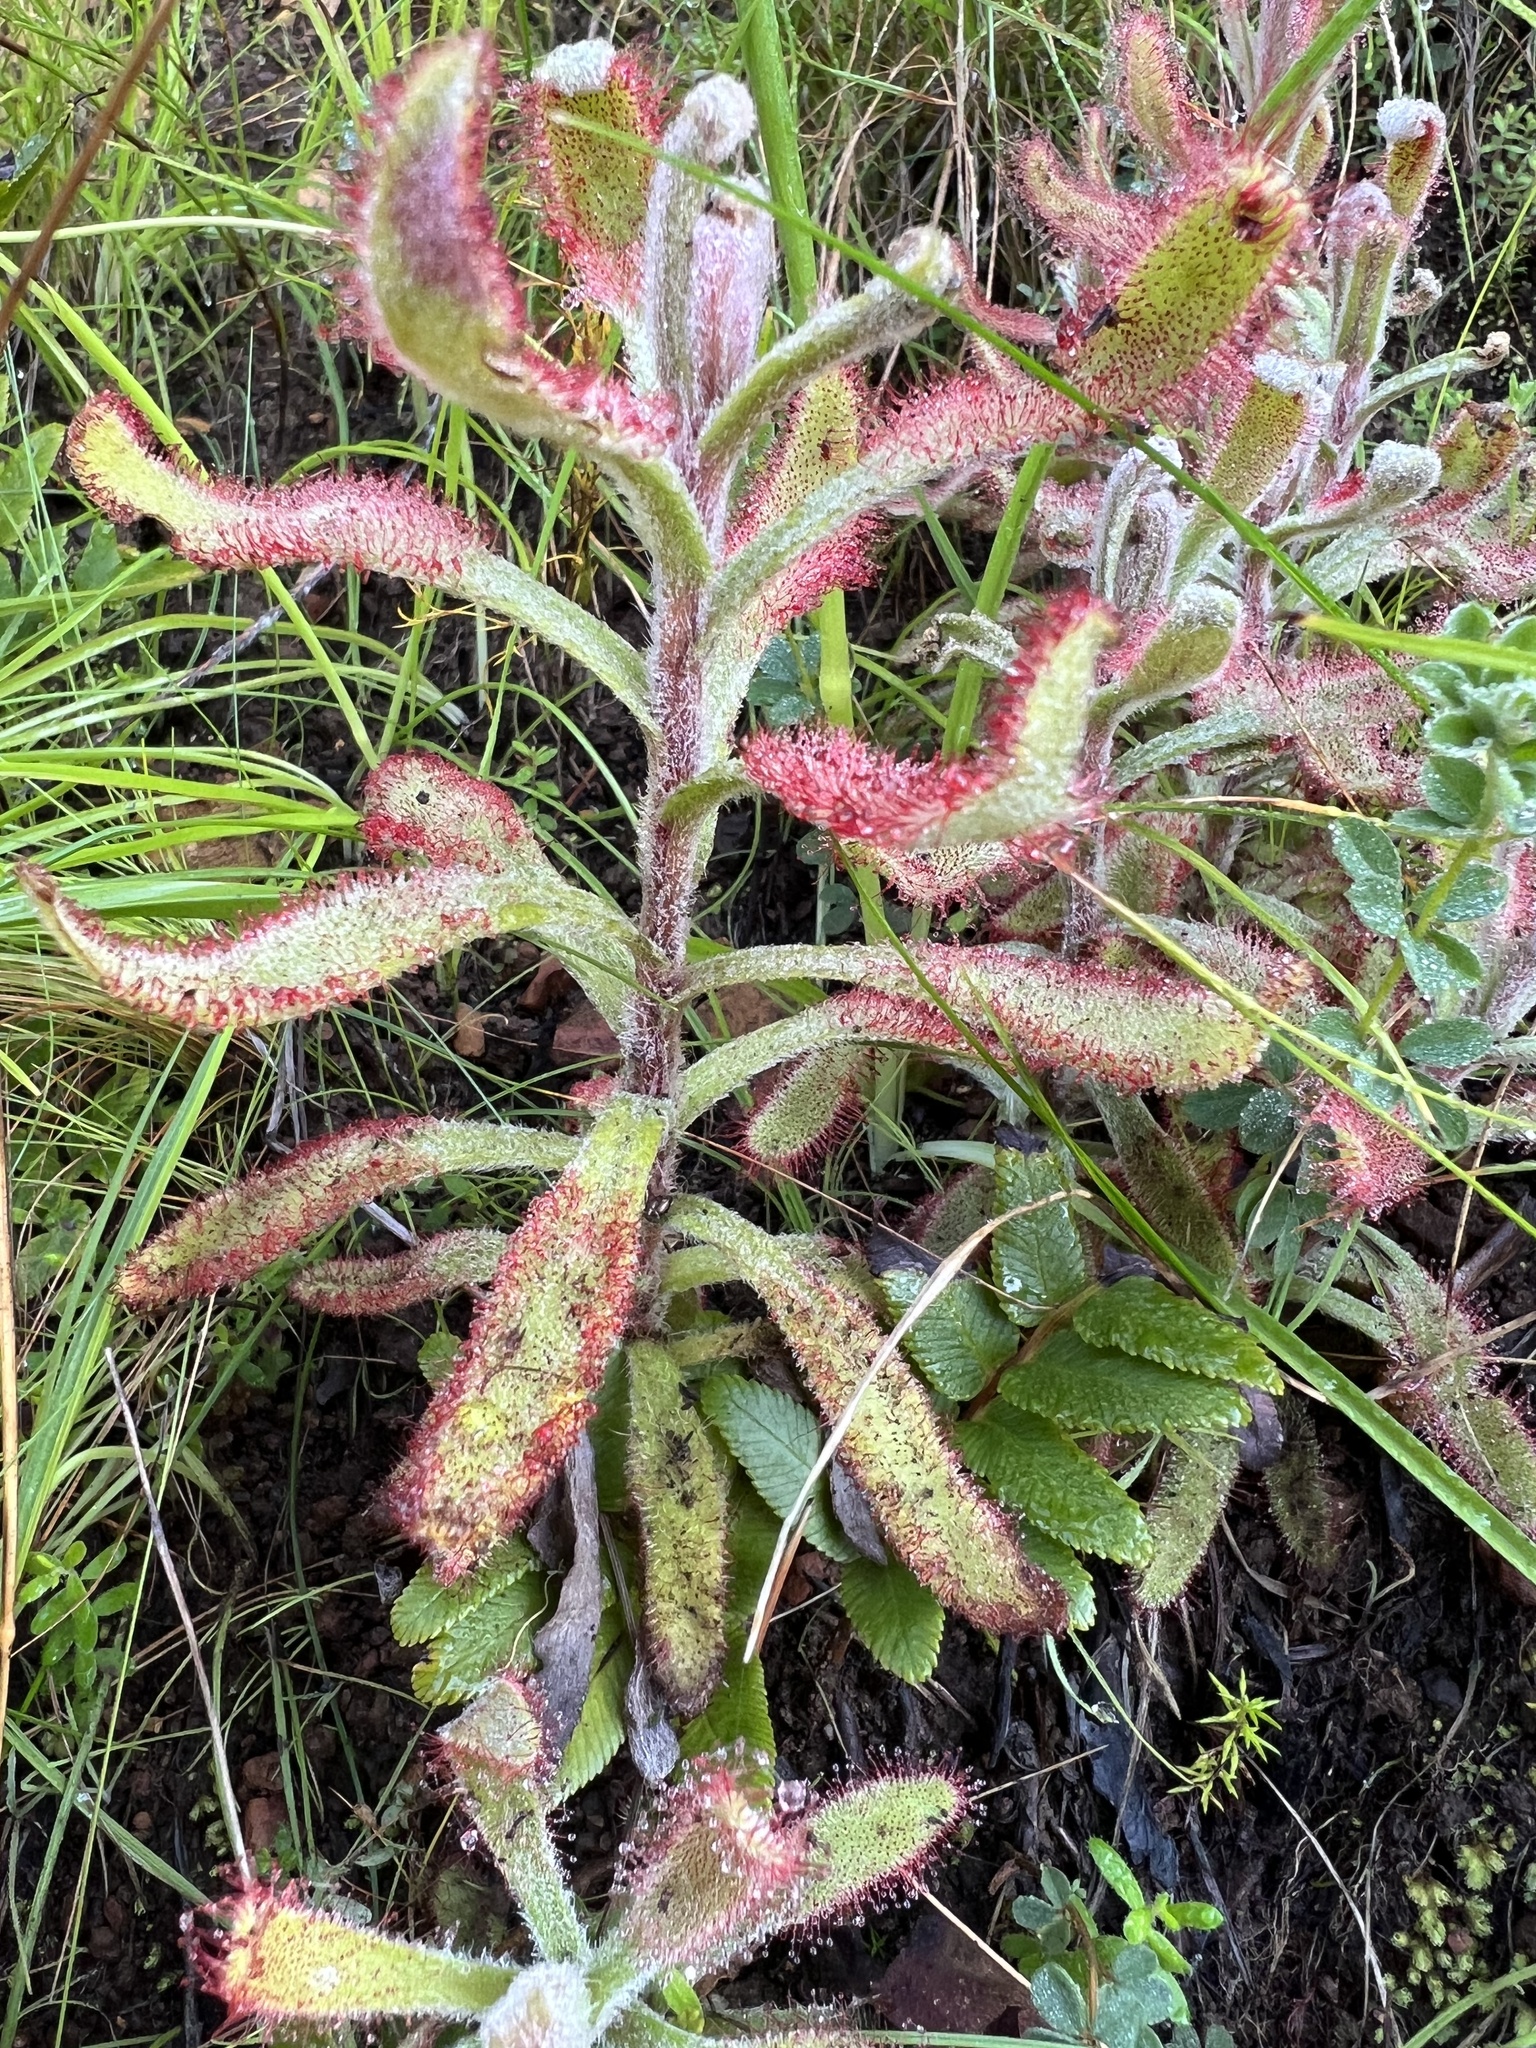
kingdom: Plantae
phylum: Tracheophyta
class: Magnoliopsida
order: Caryophyllales
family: Droseraceae
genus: Drosera
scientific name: Drosera hilaris
